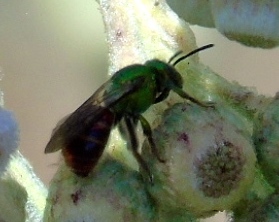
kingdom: Animalia
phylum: Arthropoda
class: Insecta
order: Hymenoptera
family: Halictidae
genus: Augochloropsis
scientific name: Augochloropsis ignita
